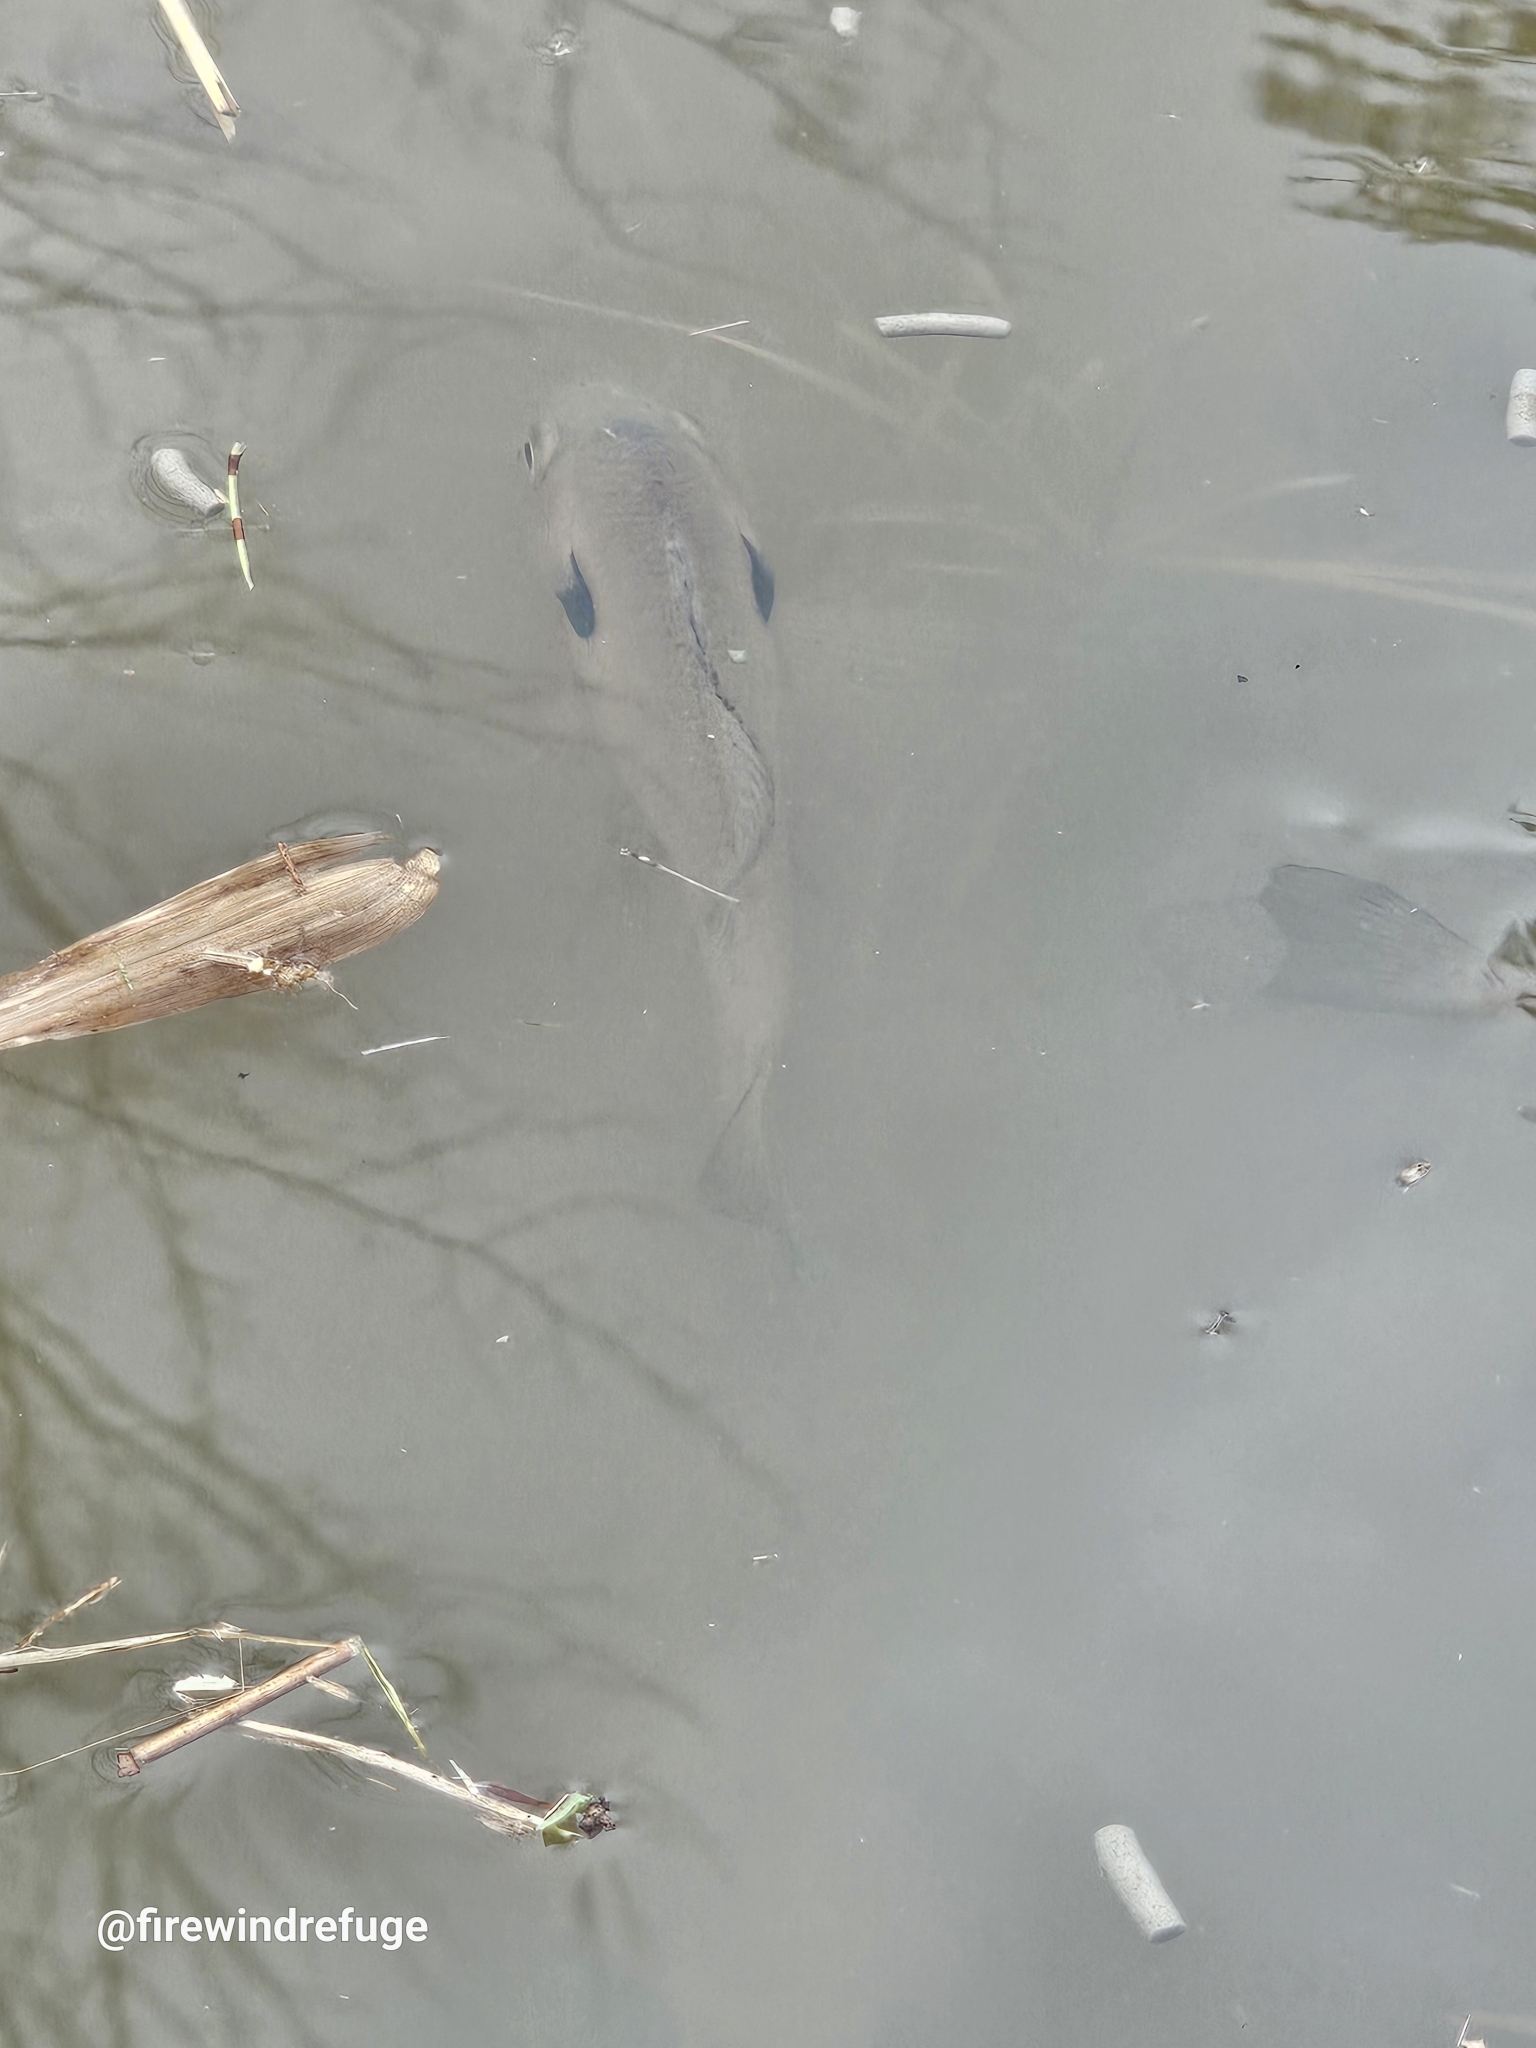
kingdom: Animalia
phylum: Chordata
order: Perciformes
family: Centrarchidae
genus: Lepomis
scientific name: Lepomis macrochirus
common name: Bluegill
